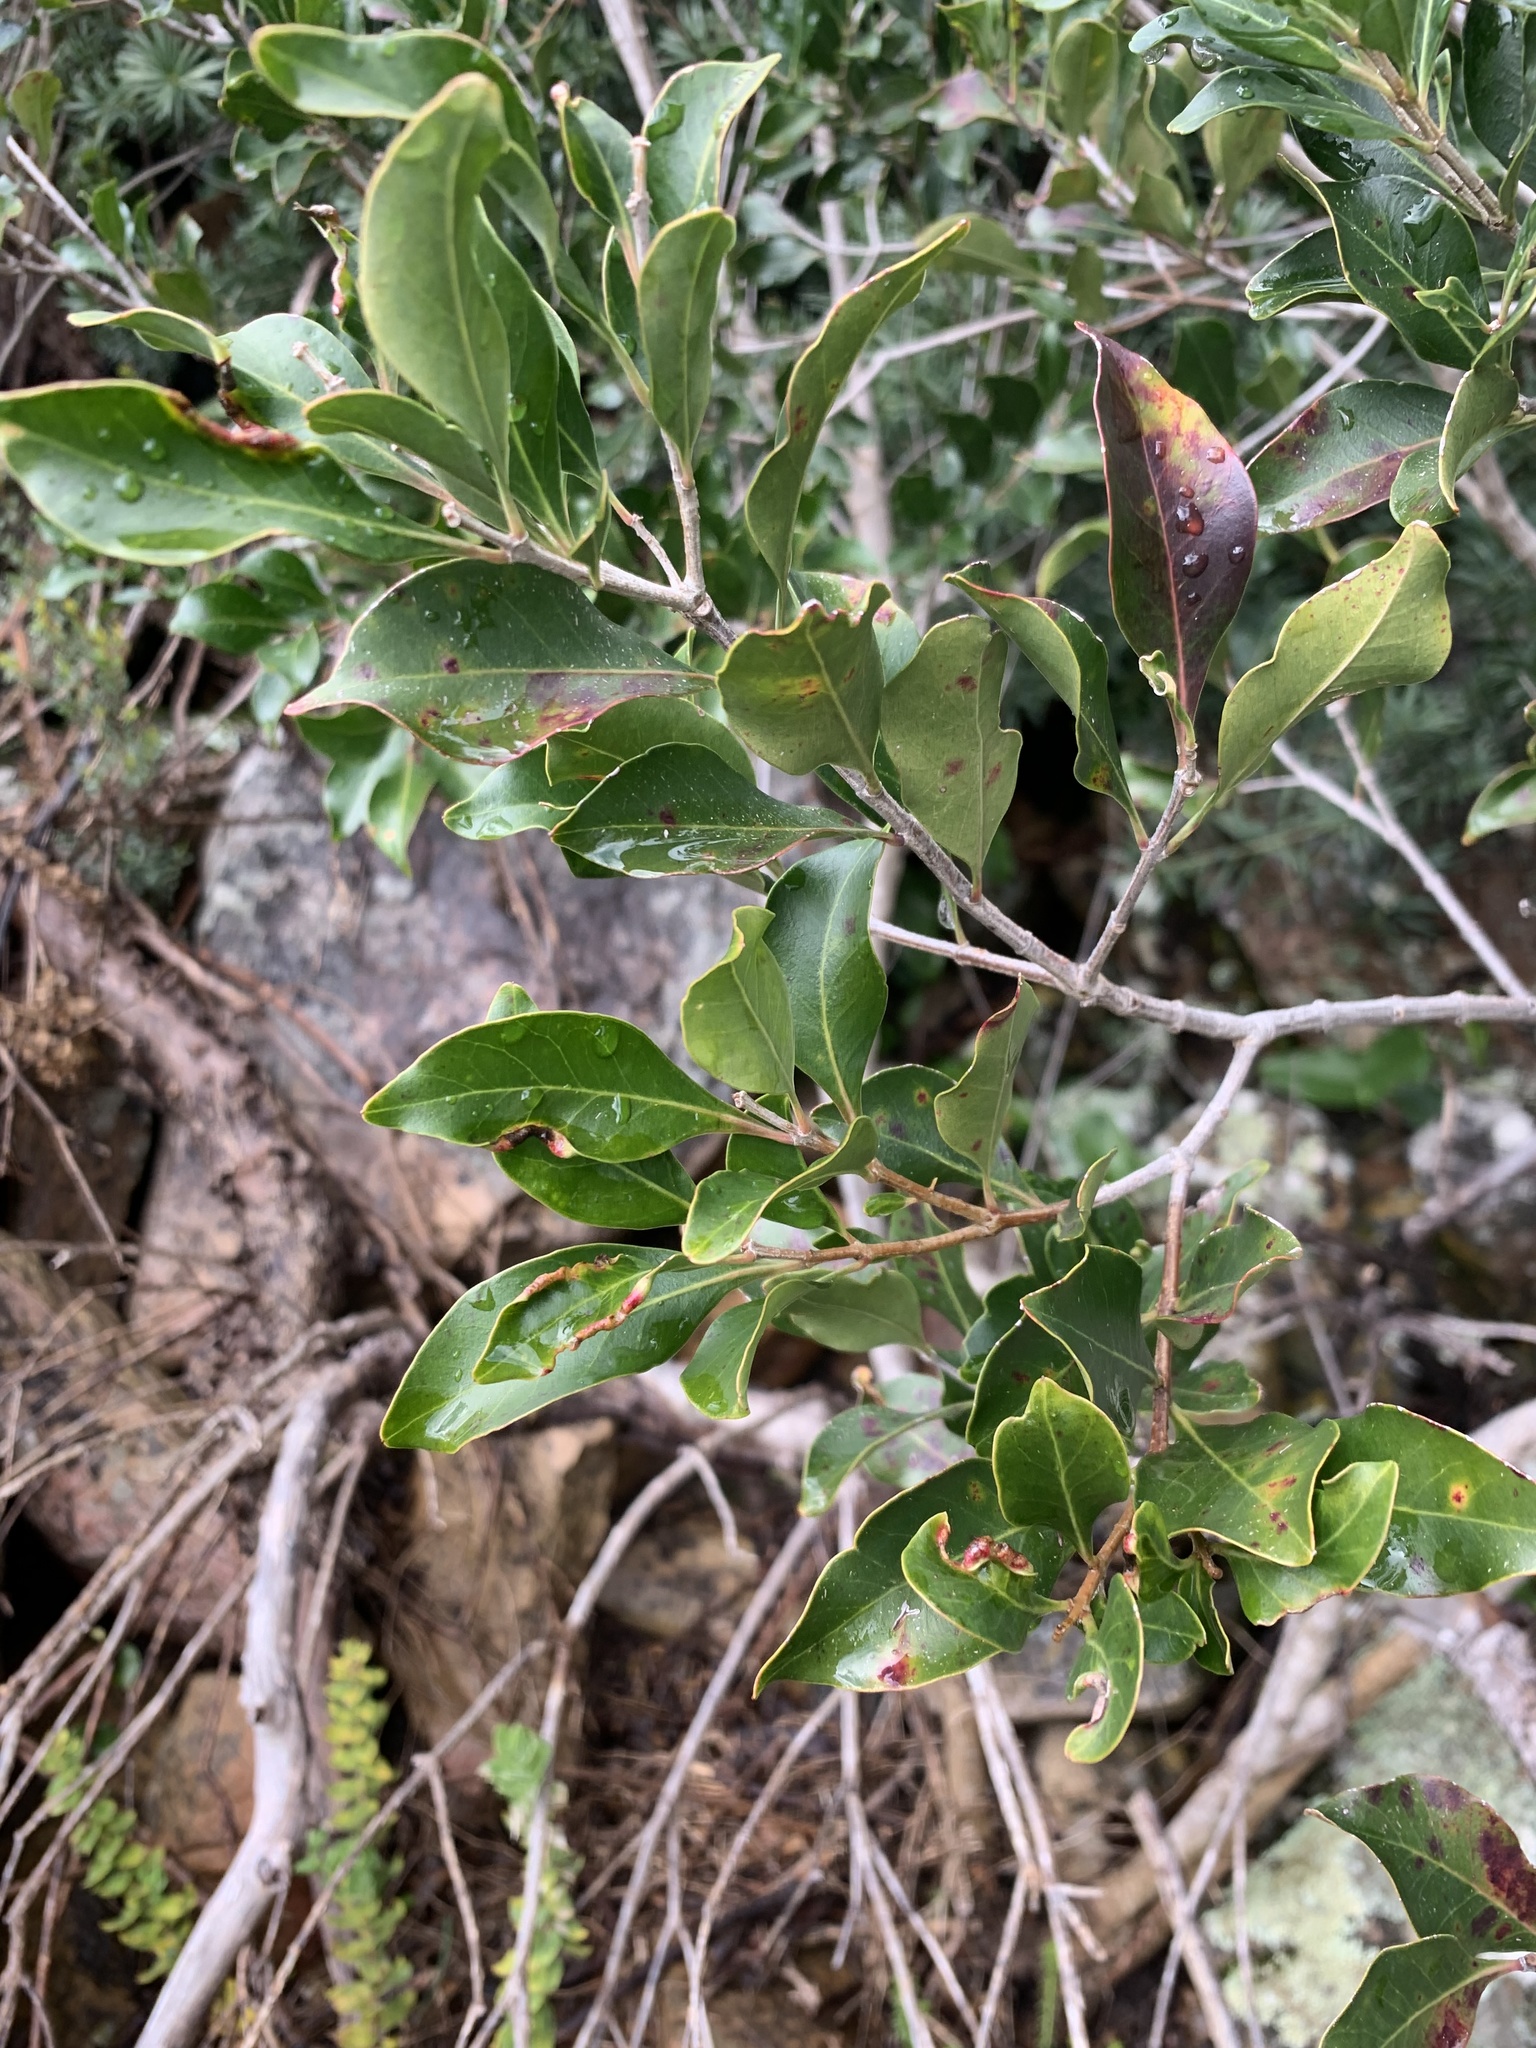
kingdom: Plantae
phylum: Tracheophyta
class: Magnoliopsida
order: Myrtales
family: Penaeaceae
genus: Olinia
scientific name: Olinia ventosa
